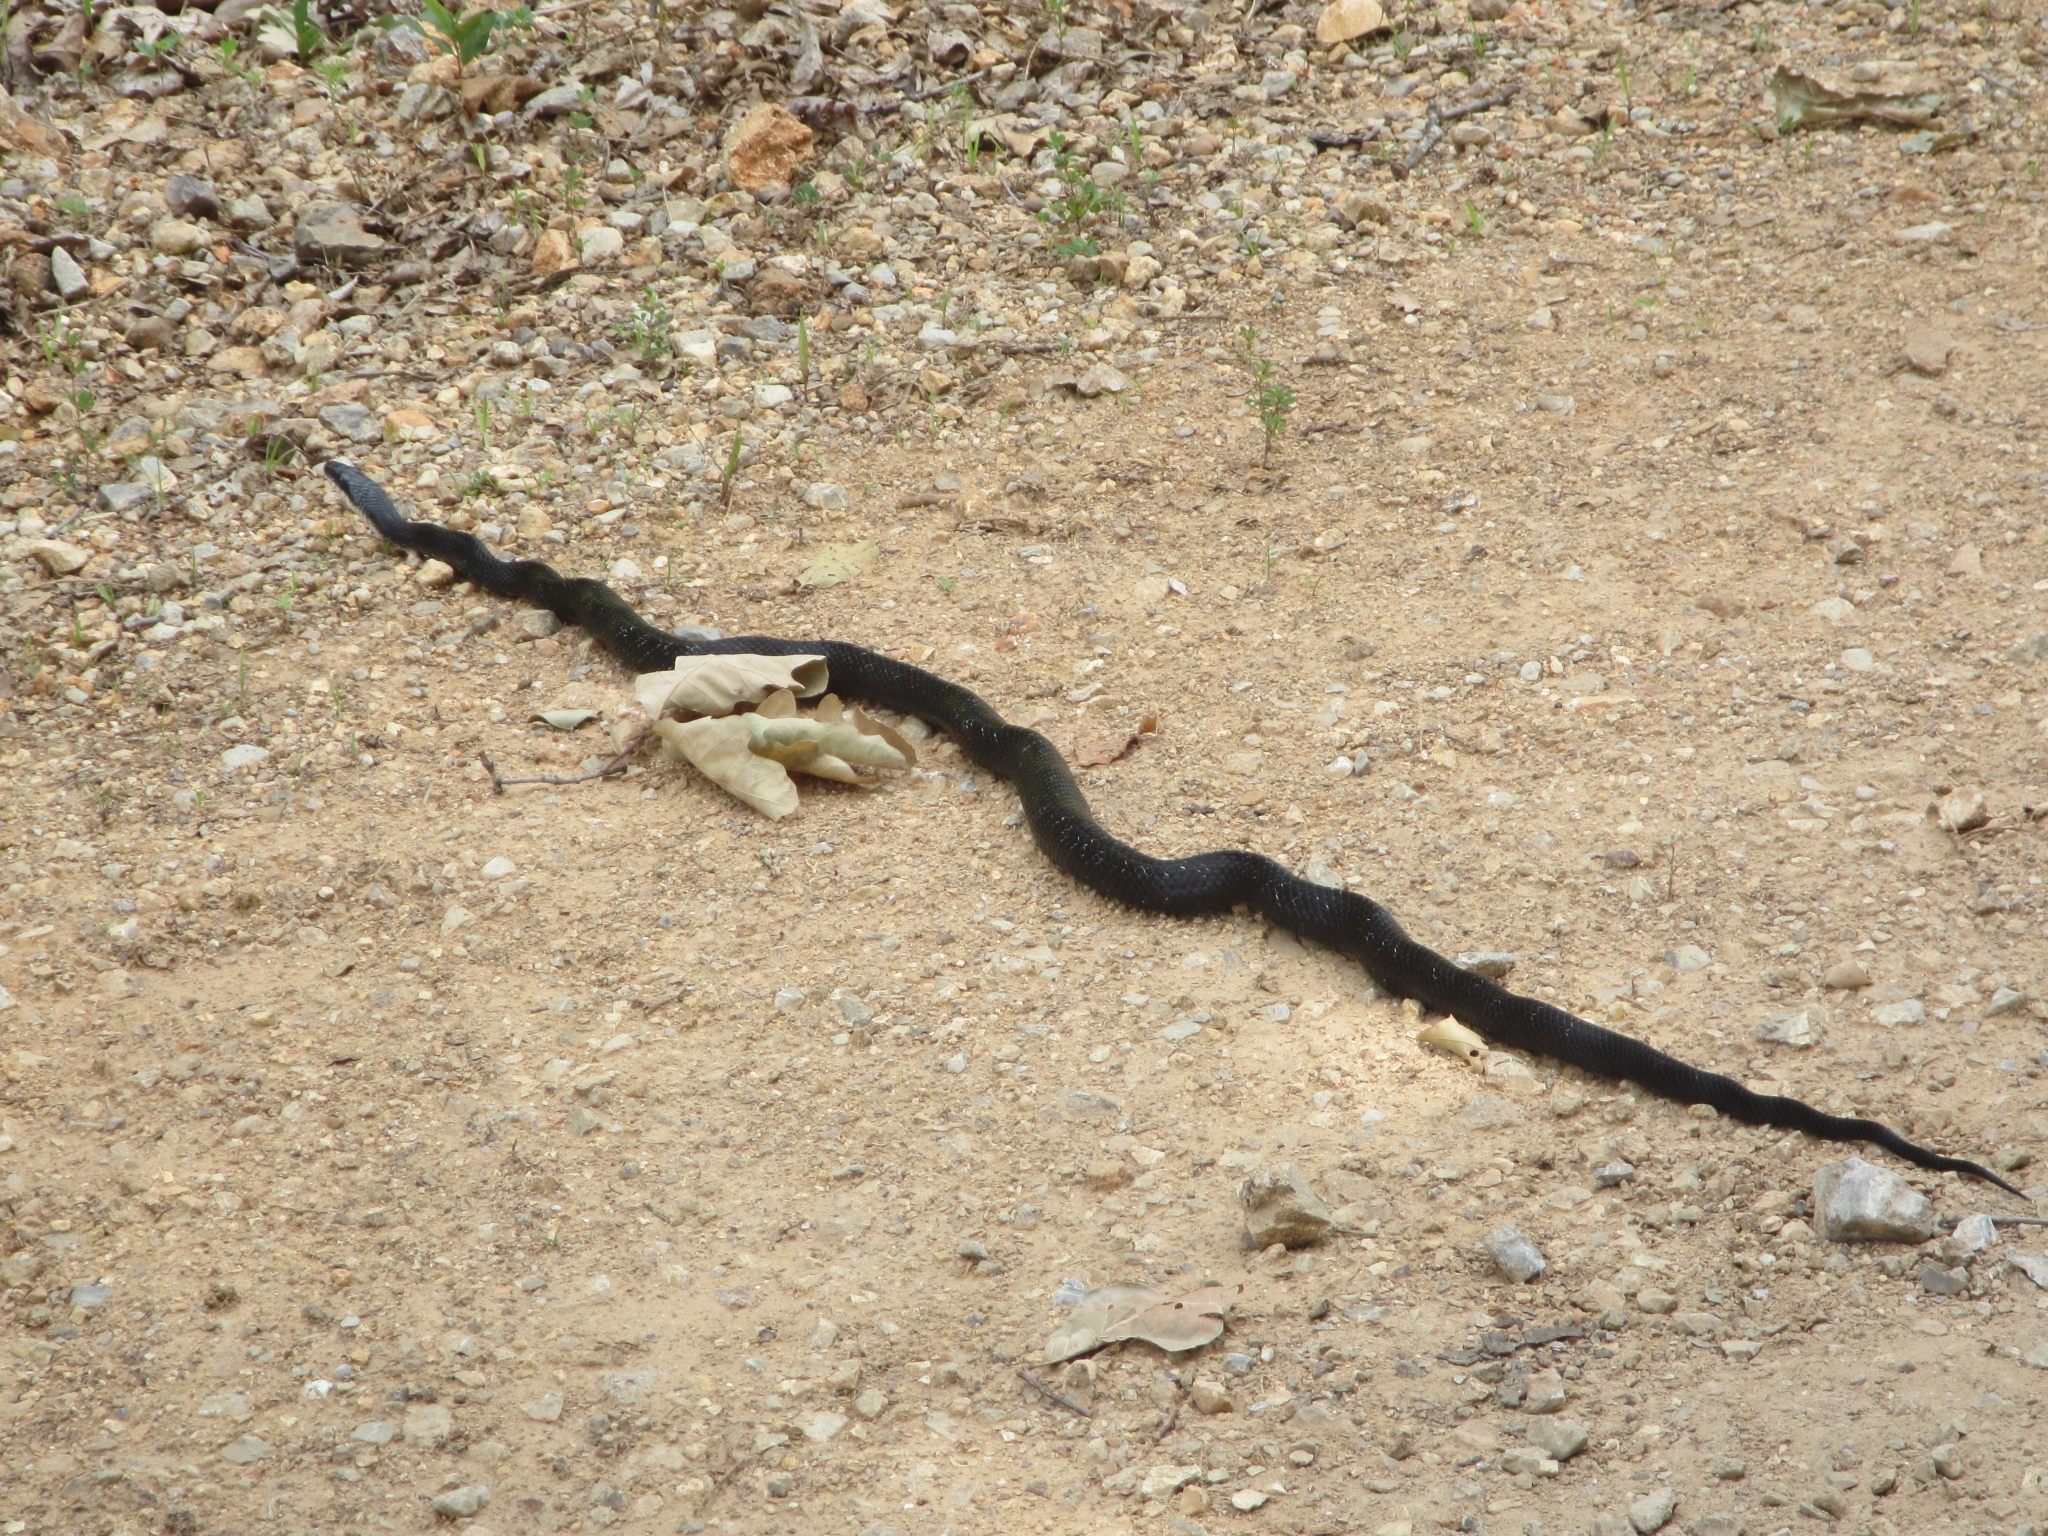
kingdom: Animalia
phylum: Chordata
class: Squamata
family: Colubridae
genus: Pantherophis
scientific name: Pantherophis obsoletus
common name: Black rat snake
